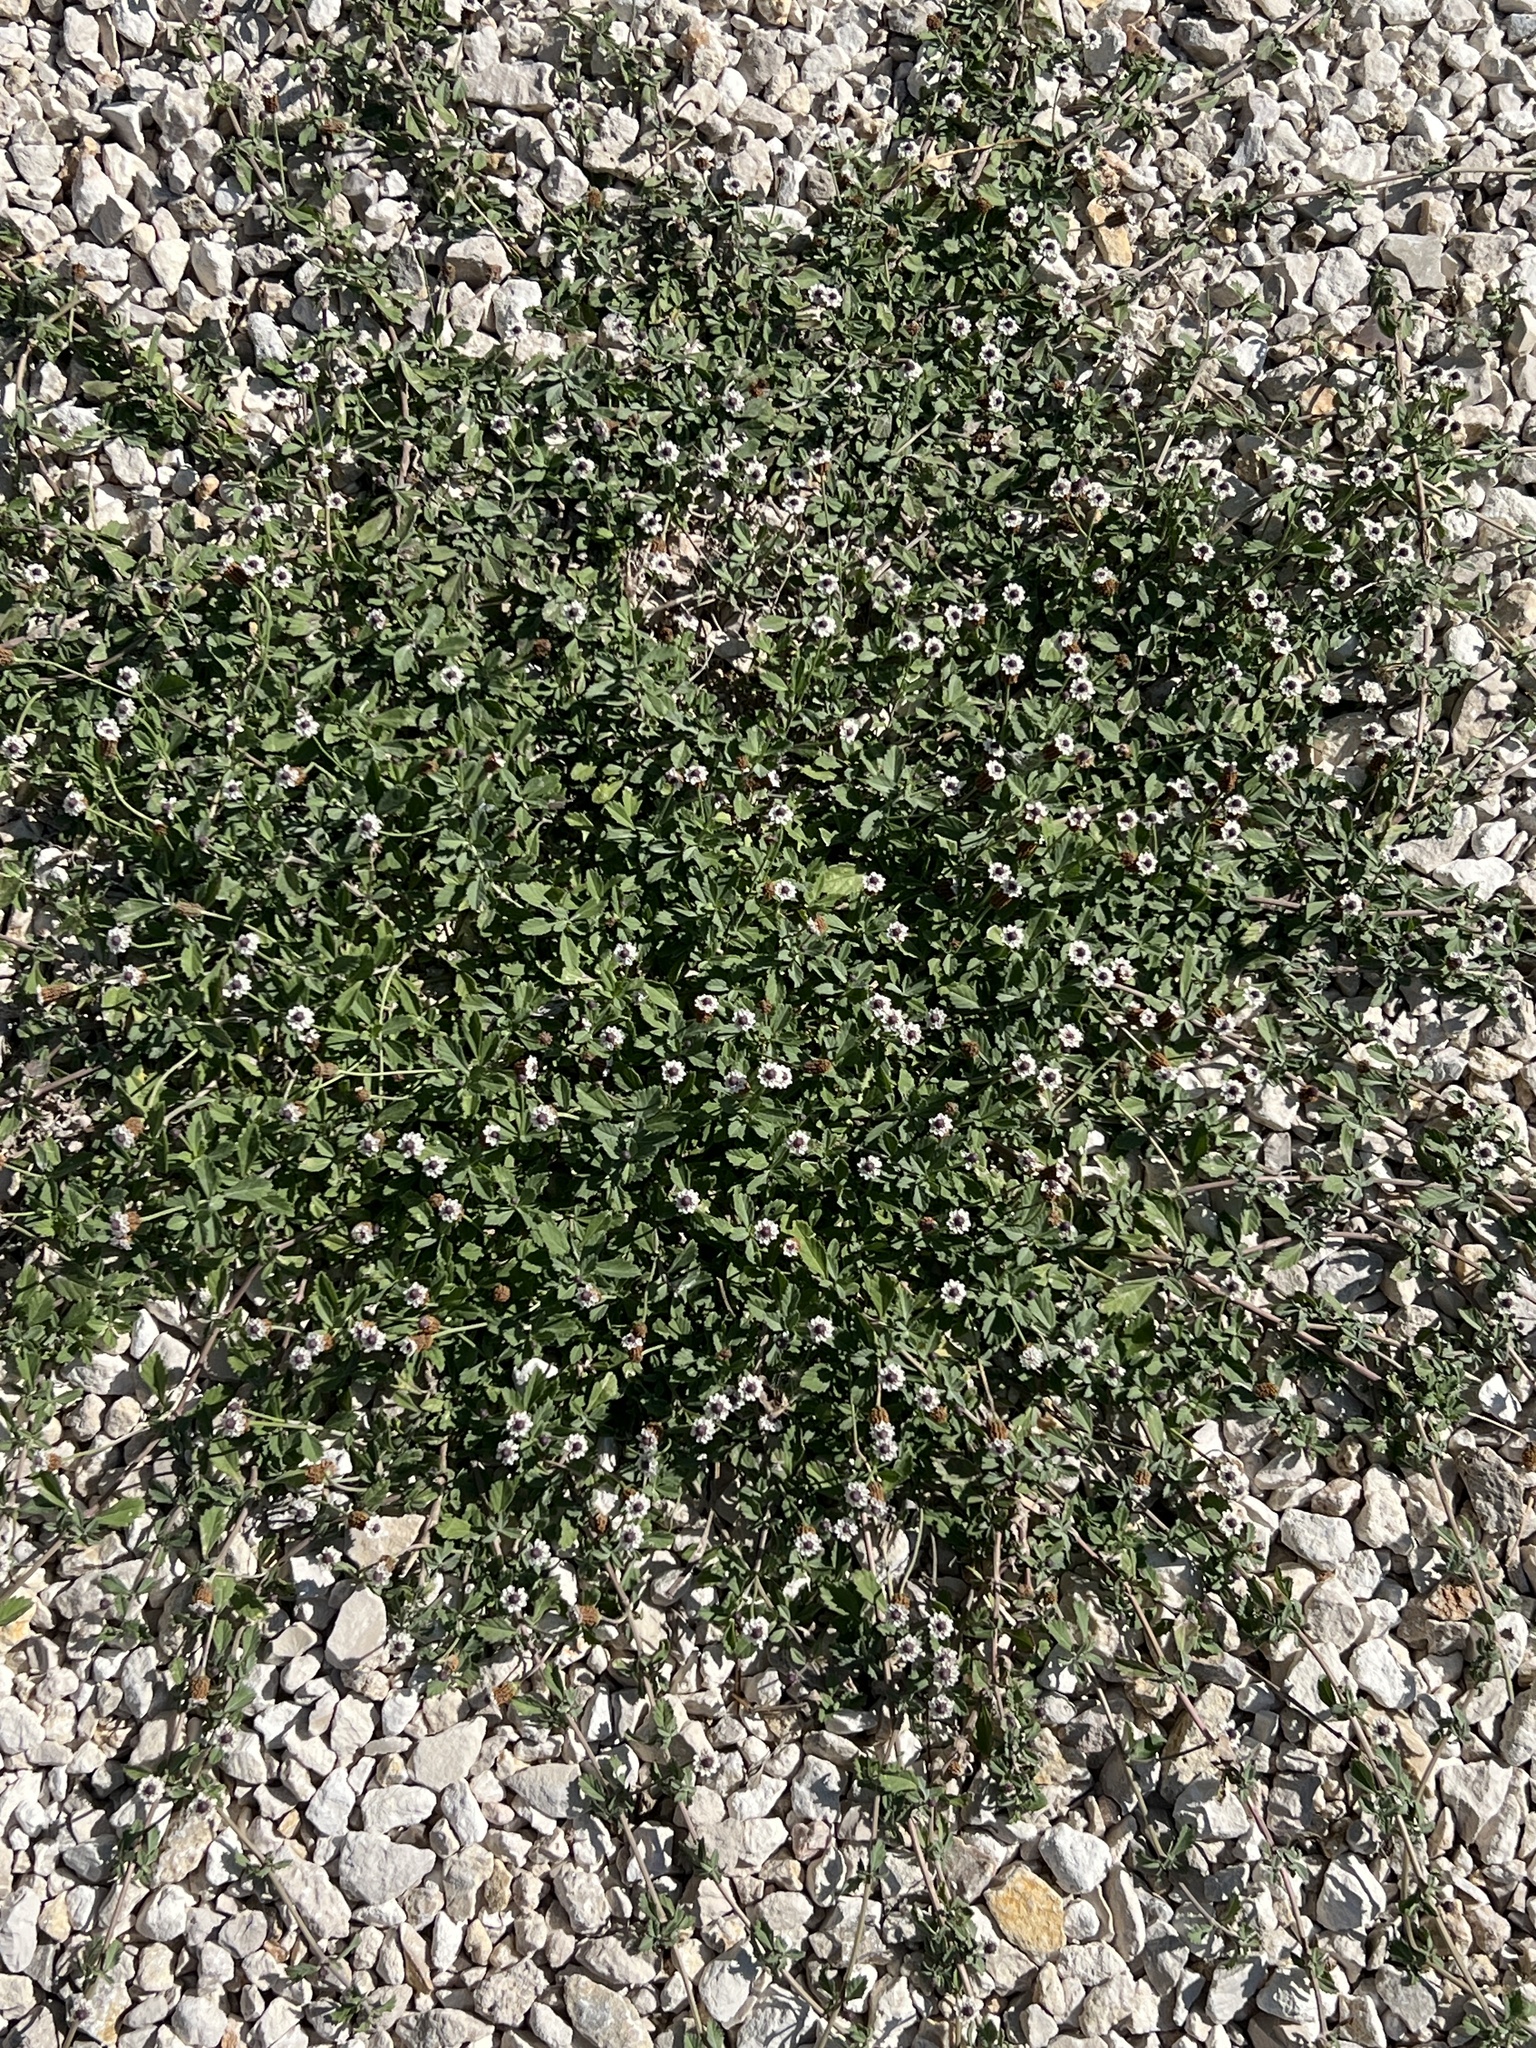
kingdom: Plantae
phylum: Tracheophyta
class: Magnoliopsida
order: Lamiales
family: Verbenaceae
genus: Phyla
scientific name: Phyla nodiflora
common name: Frogfruit
